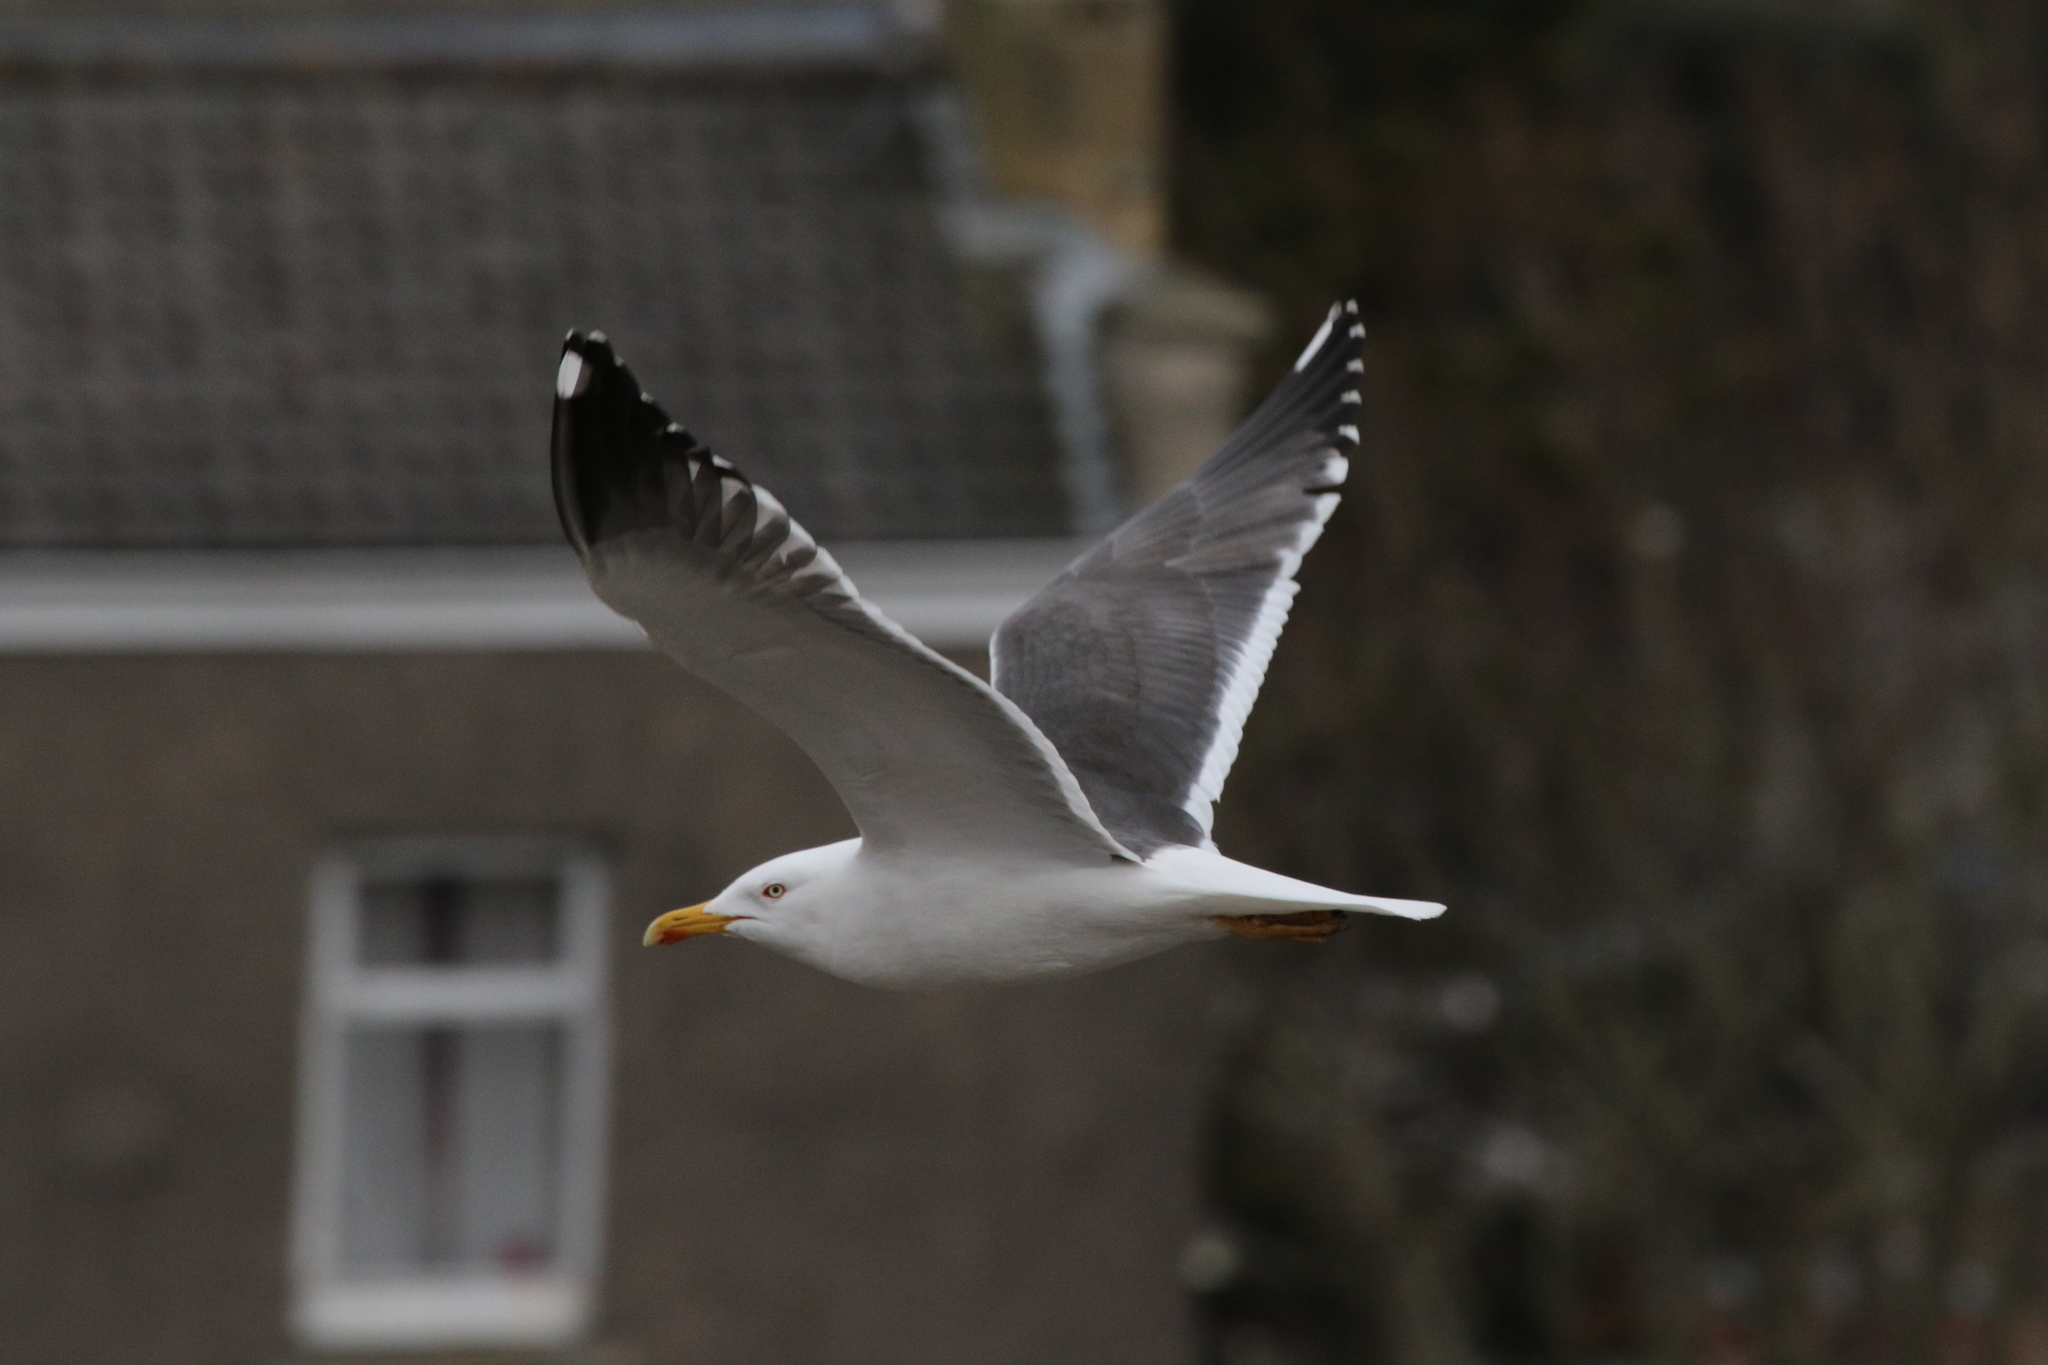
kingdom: Animalia
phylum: Chordata
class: Aves
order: Charadriiformes
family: Laridae
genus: Larus
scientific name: Larus fuscus
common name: Lesser black-backed gull
